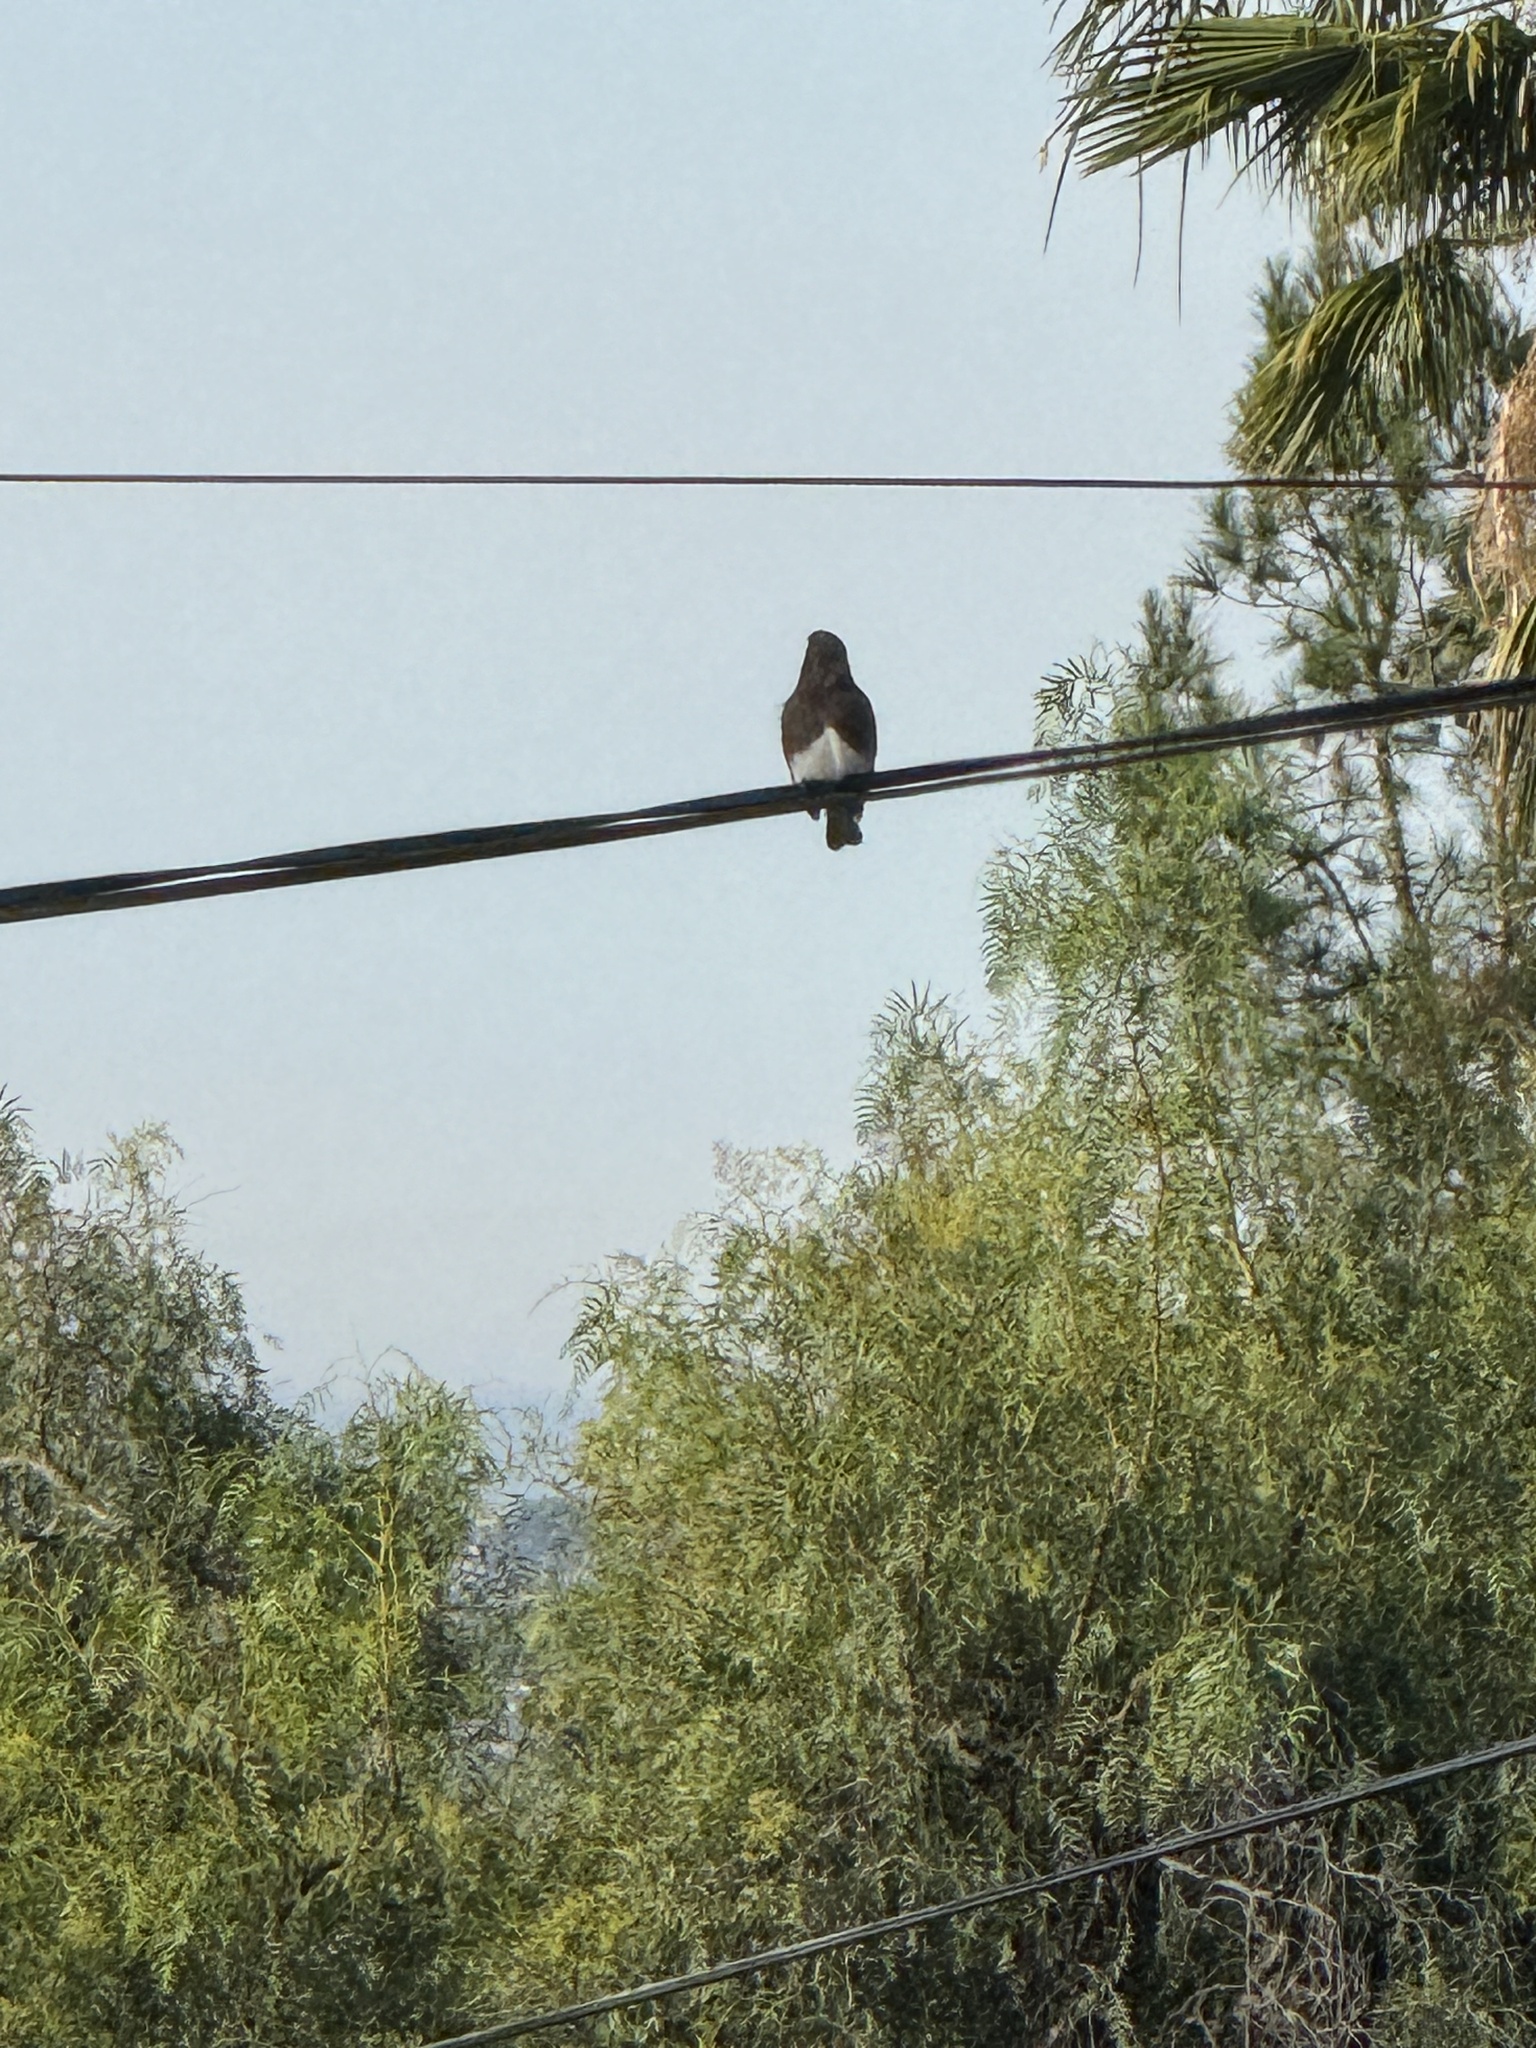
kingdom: Animalia
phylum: Chordata
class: Aves
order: Passeriformes
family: Tyrannidae
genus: Sayornis
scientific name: Sayornis nigricans
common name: Black phoebe
